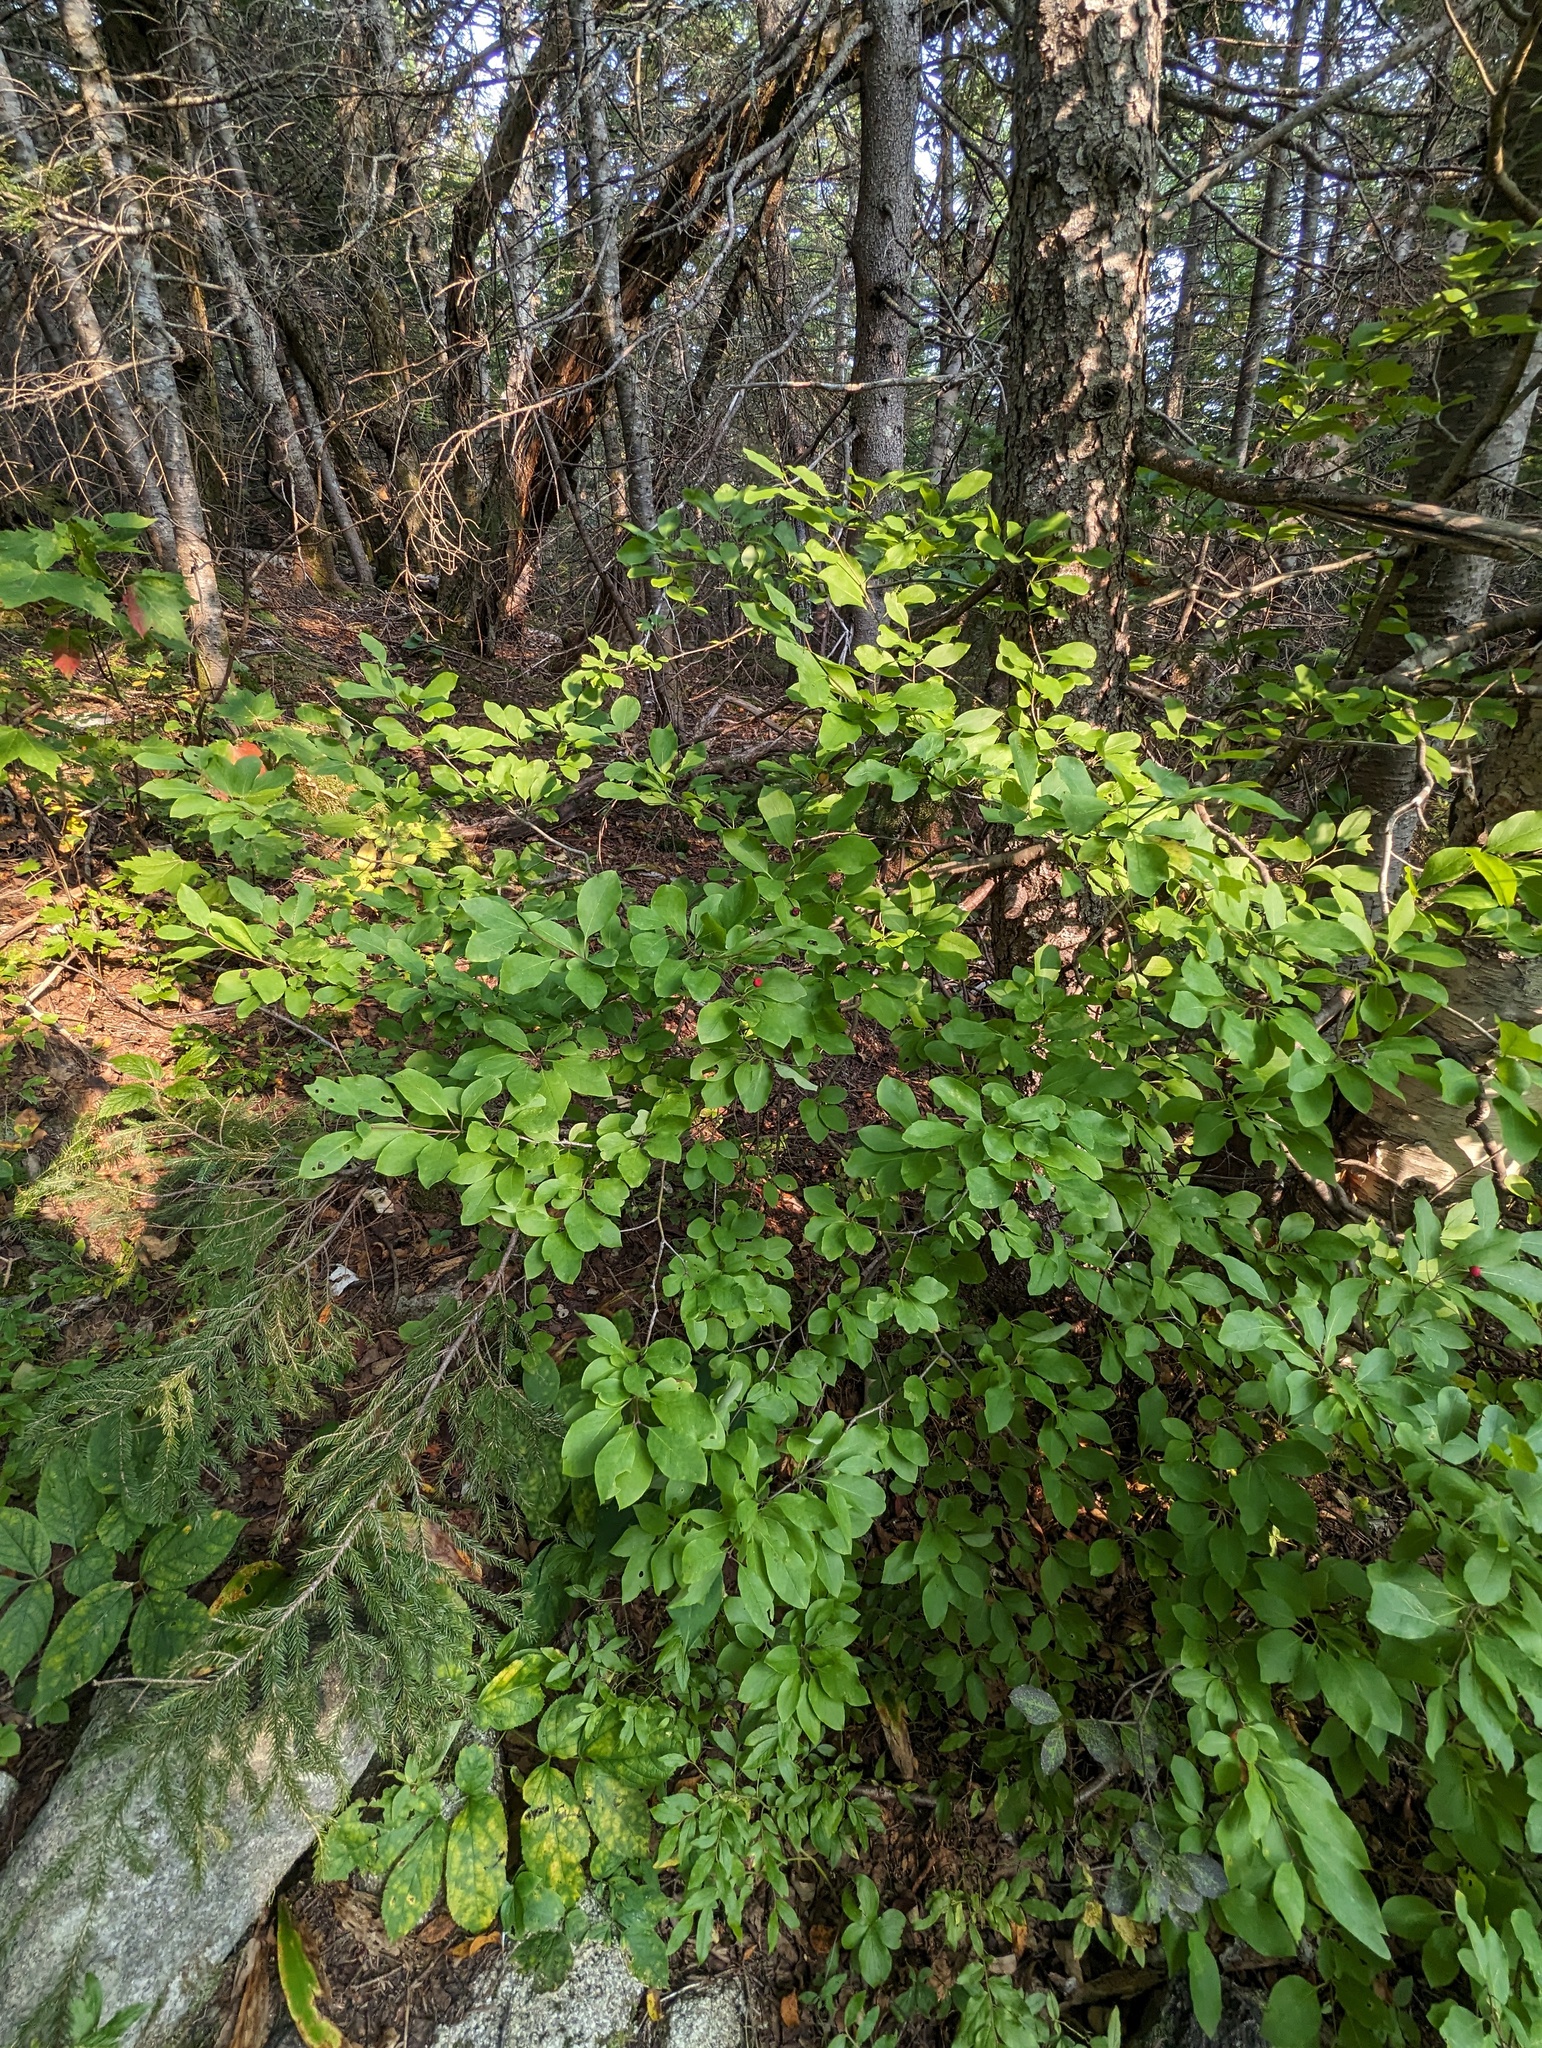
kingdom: Plantae
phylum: Tracheophyta
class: Magnoliopsida
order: Aquifoliales
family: Aquifoliaceae
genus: Ilex
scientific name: Ilex mucronata
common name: Catberry
